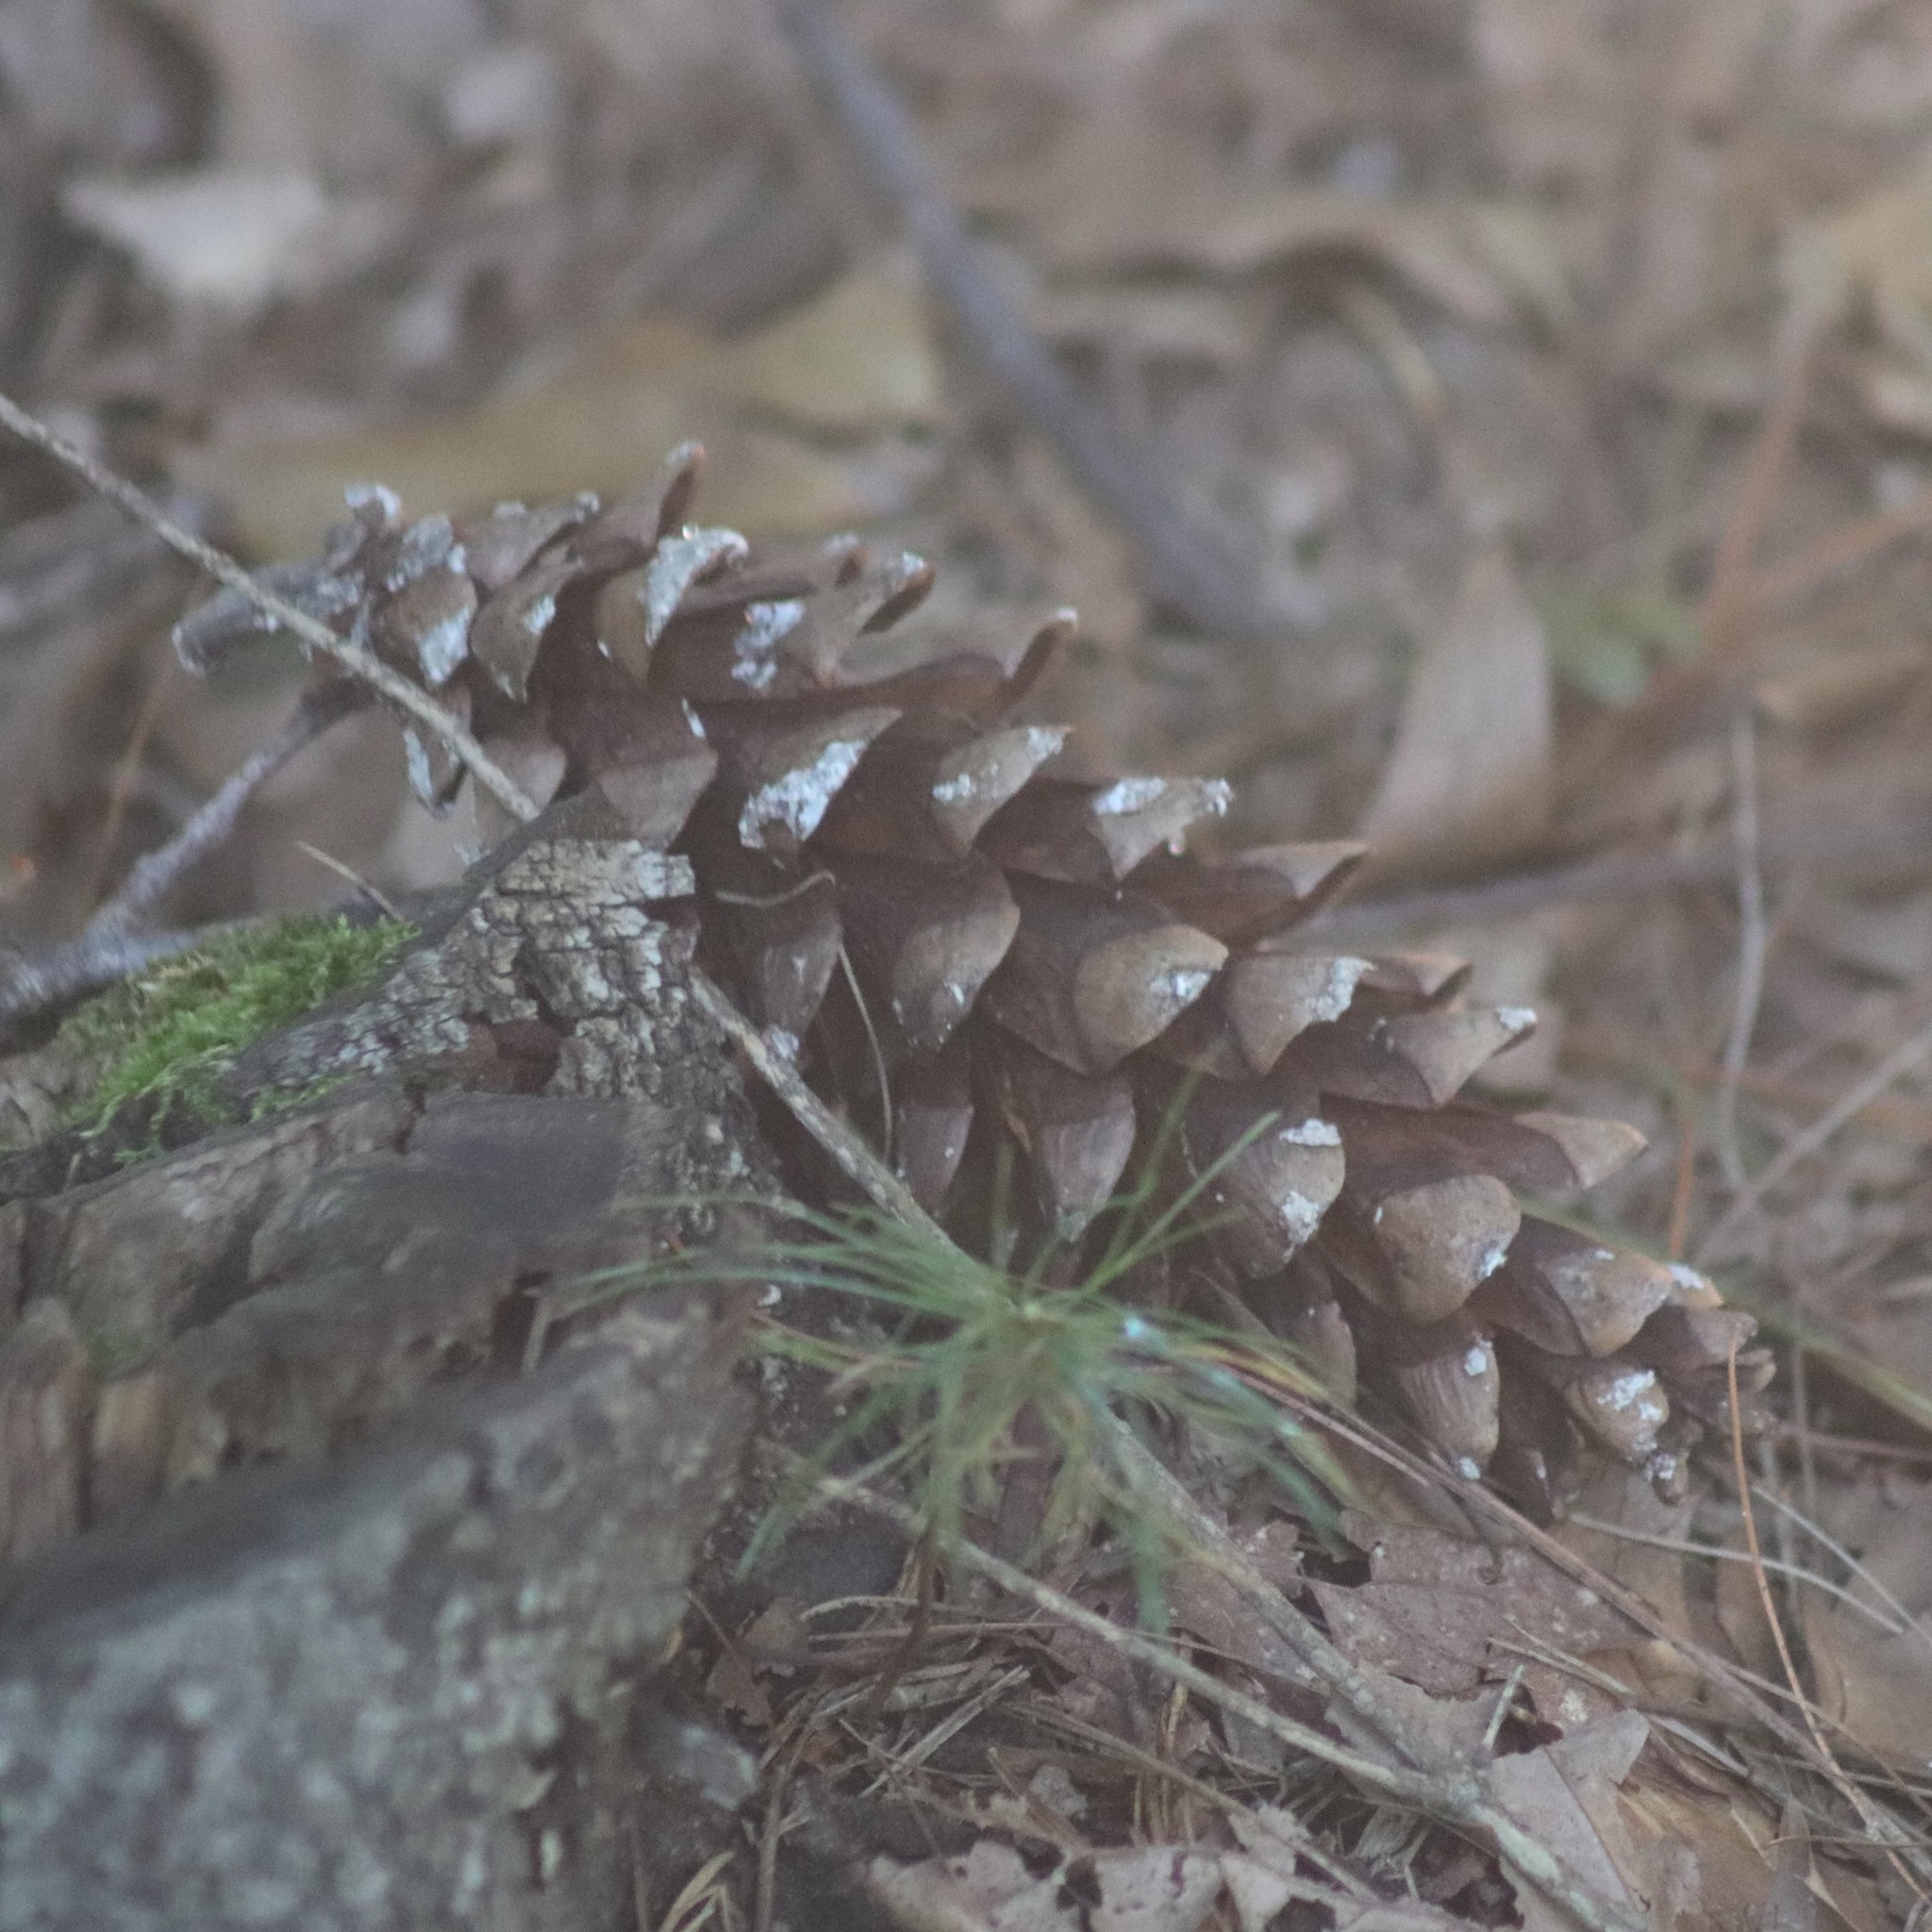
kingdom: Plantae
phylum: Tracheophyta
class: Pinopsida
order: Pinales
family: Pinaceae
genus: Pinus
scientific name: Pinus strobus
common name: Weymouth pine
